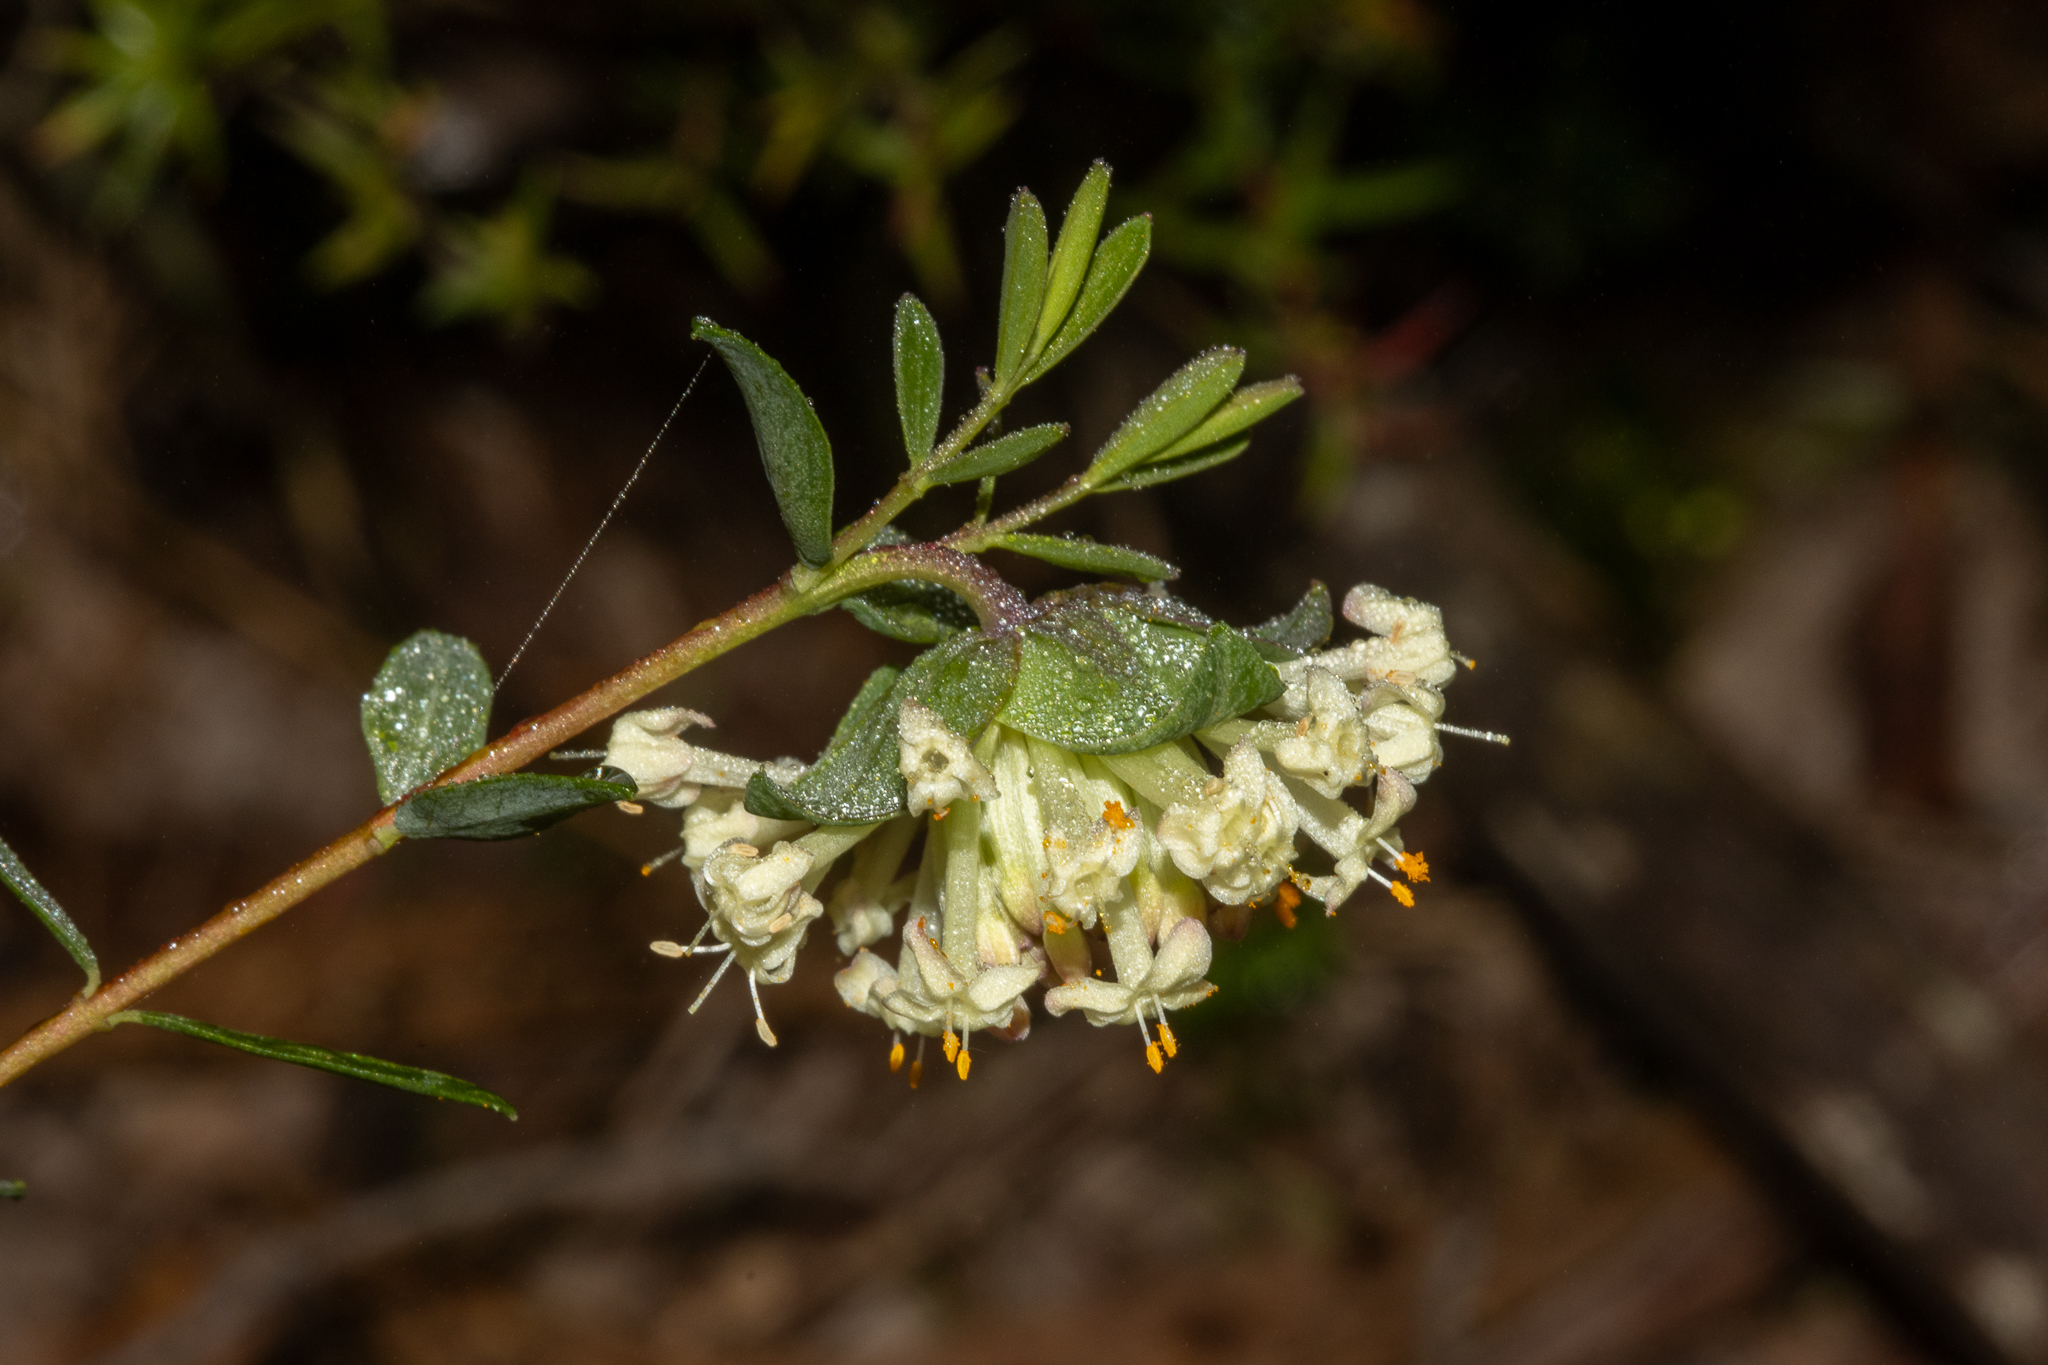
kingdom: Plantae
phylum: Tracheophyta
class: Magnoliopsida
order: Malvales
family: Thymelaeaceae
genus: Pimelea
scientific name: Pimelea linifolia
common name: Queen-of-the-bush
